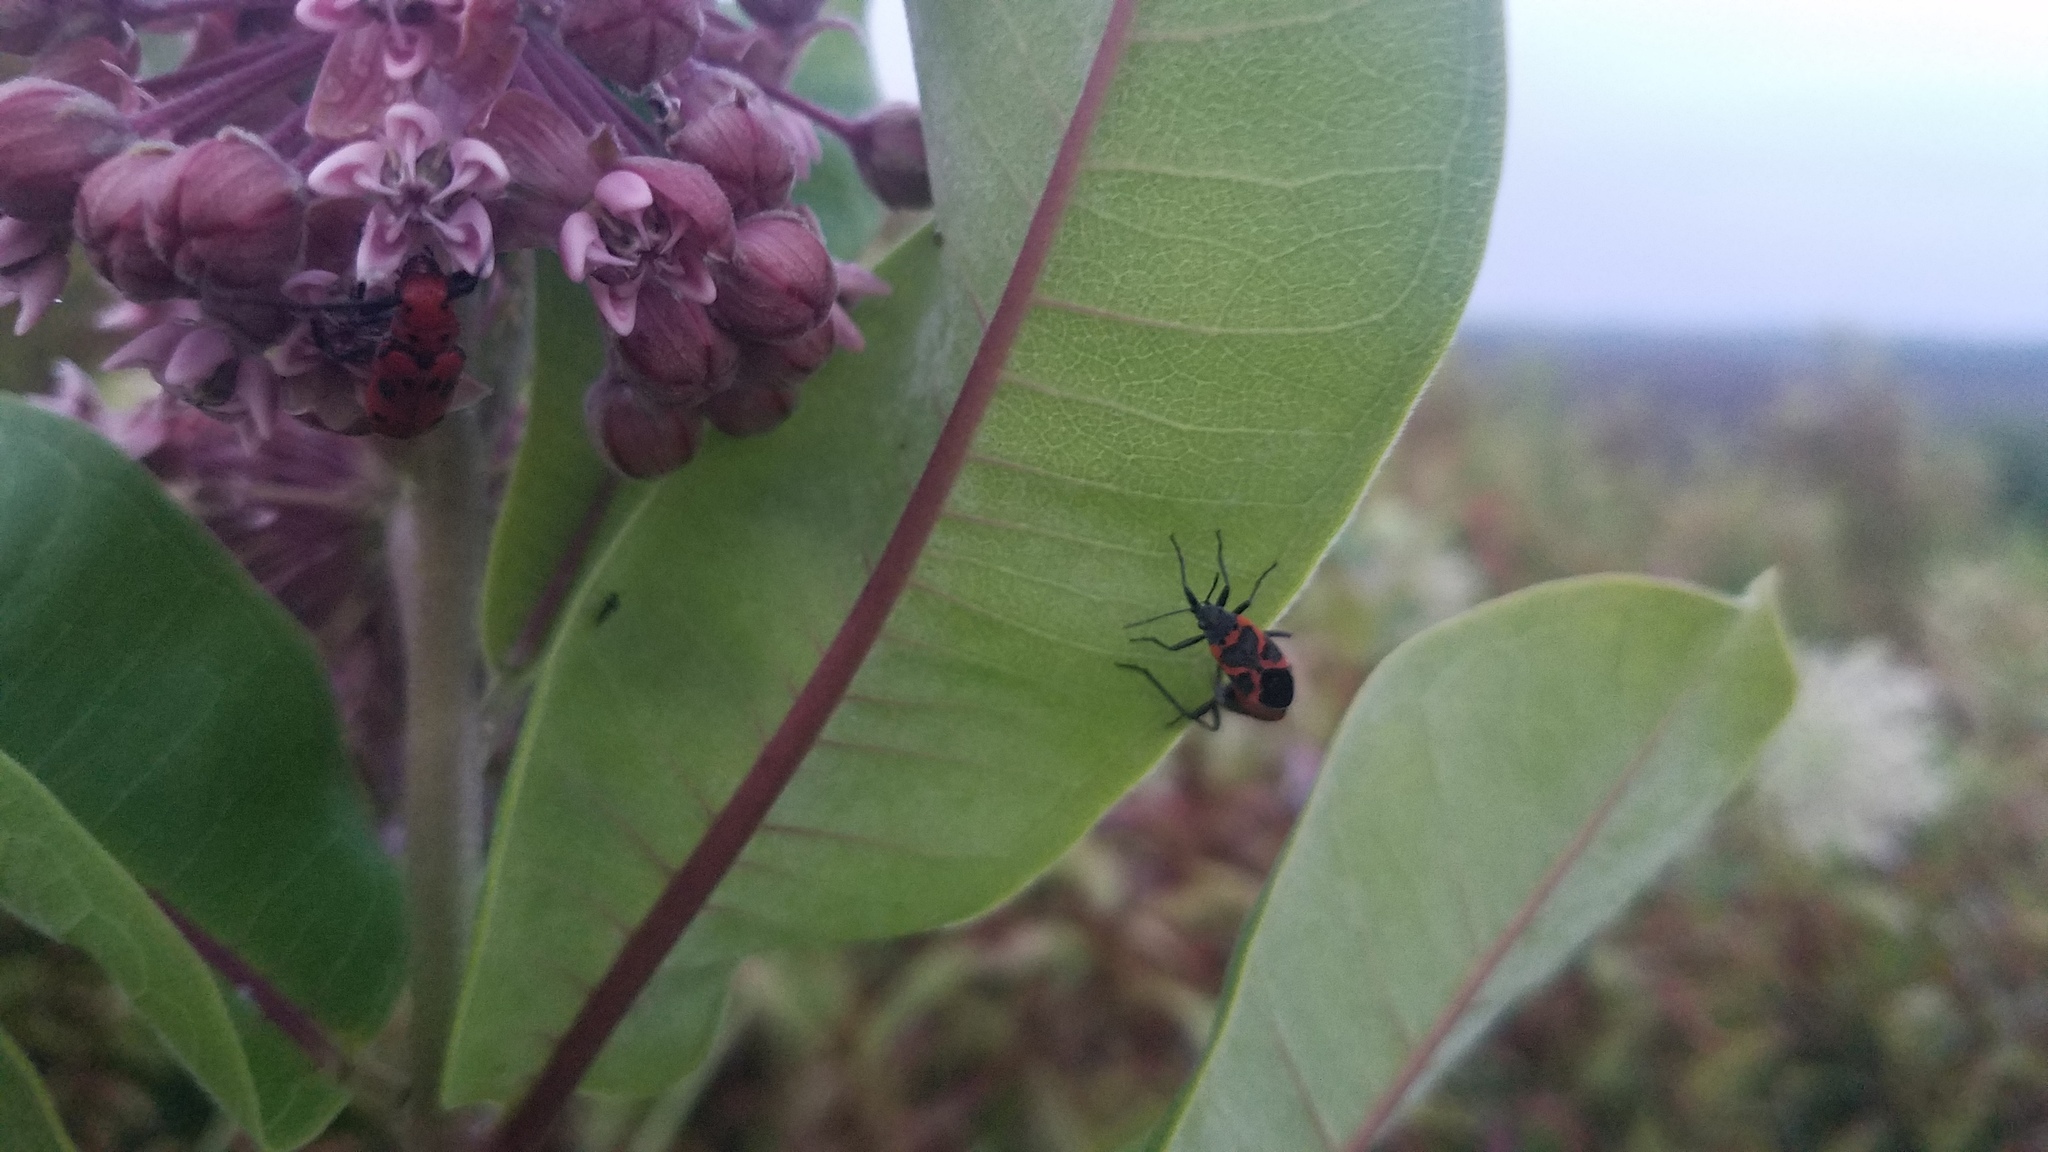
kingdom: Animalia
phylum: Arthropoda
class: Insecta
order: Hemiptera
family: Lygaeidae
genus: Lygaeus
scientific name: Lygaeus kalmii
